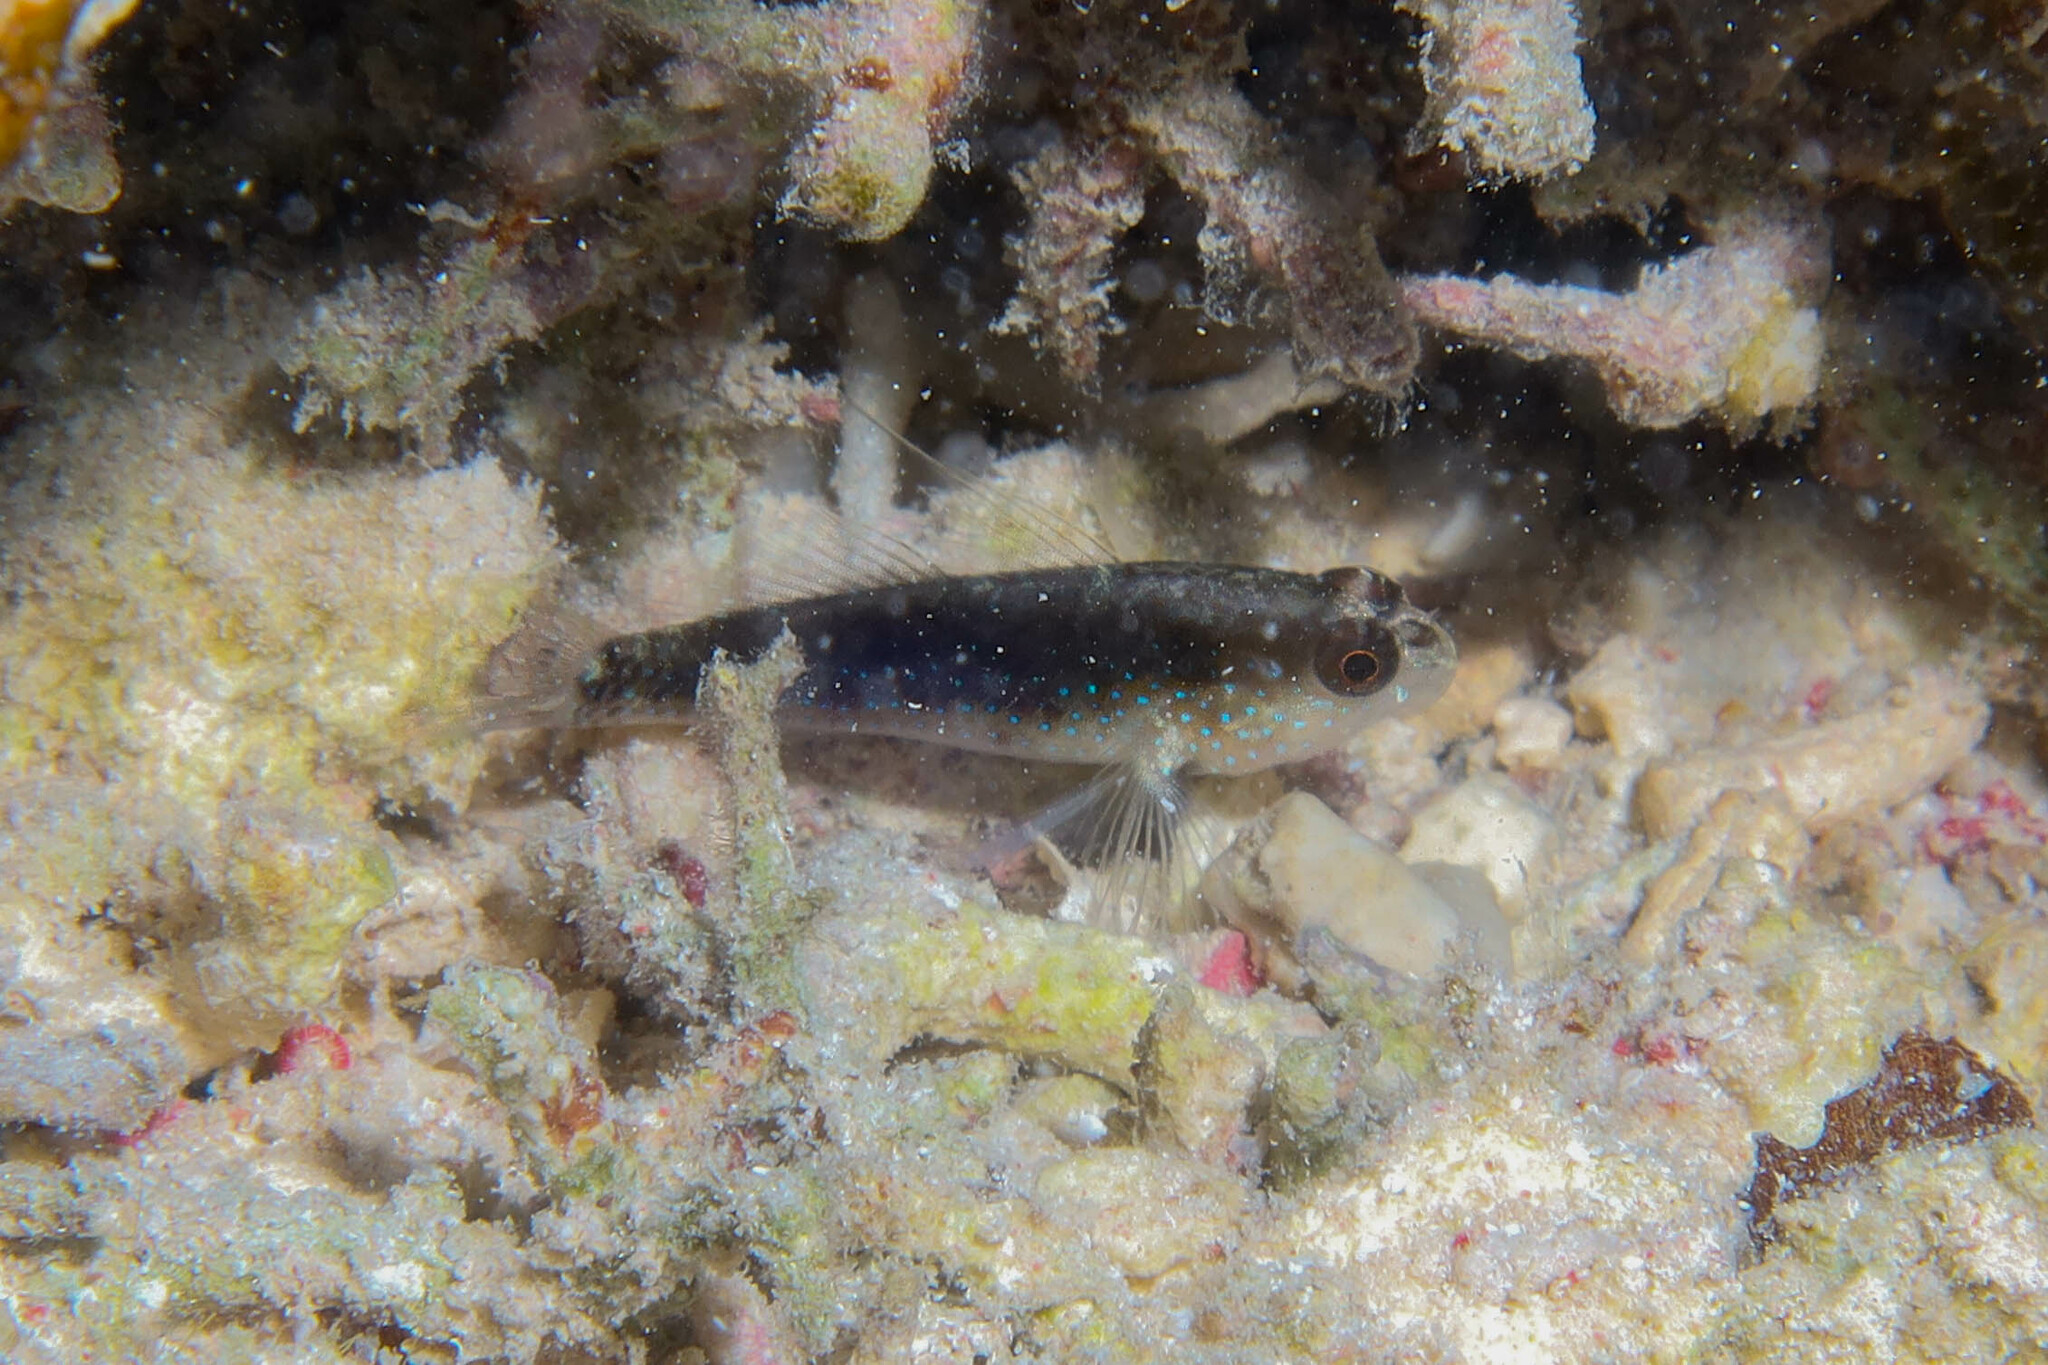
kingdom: Animalia
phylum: Chordata
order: Perciformes
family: Gobiidae
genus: Asterropteryx
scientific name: Asterropteryx semipunctata
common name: Starry goby
